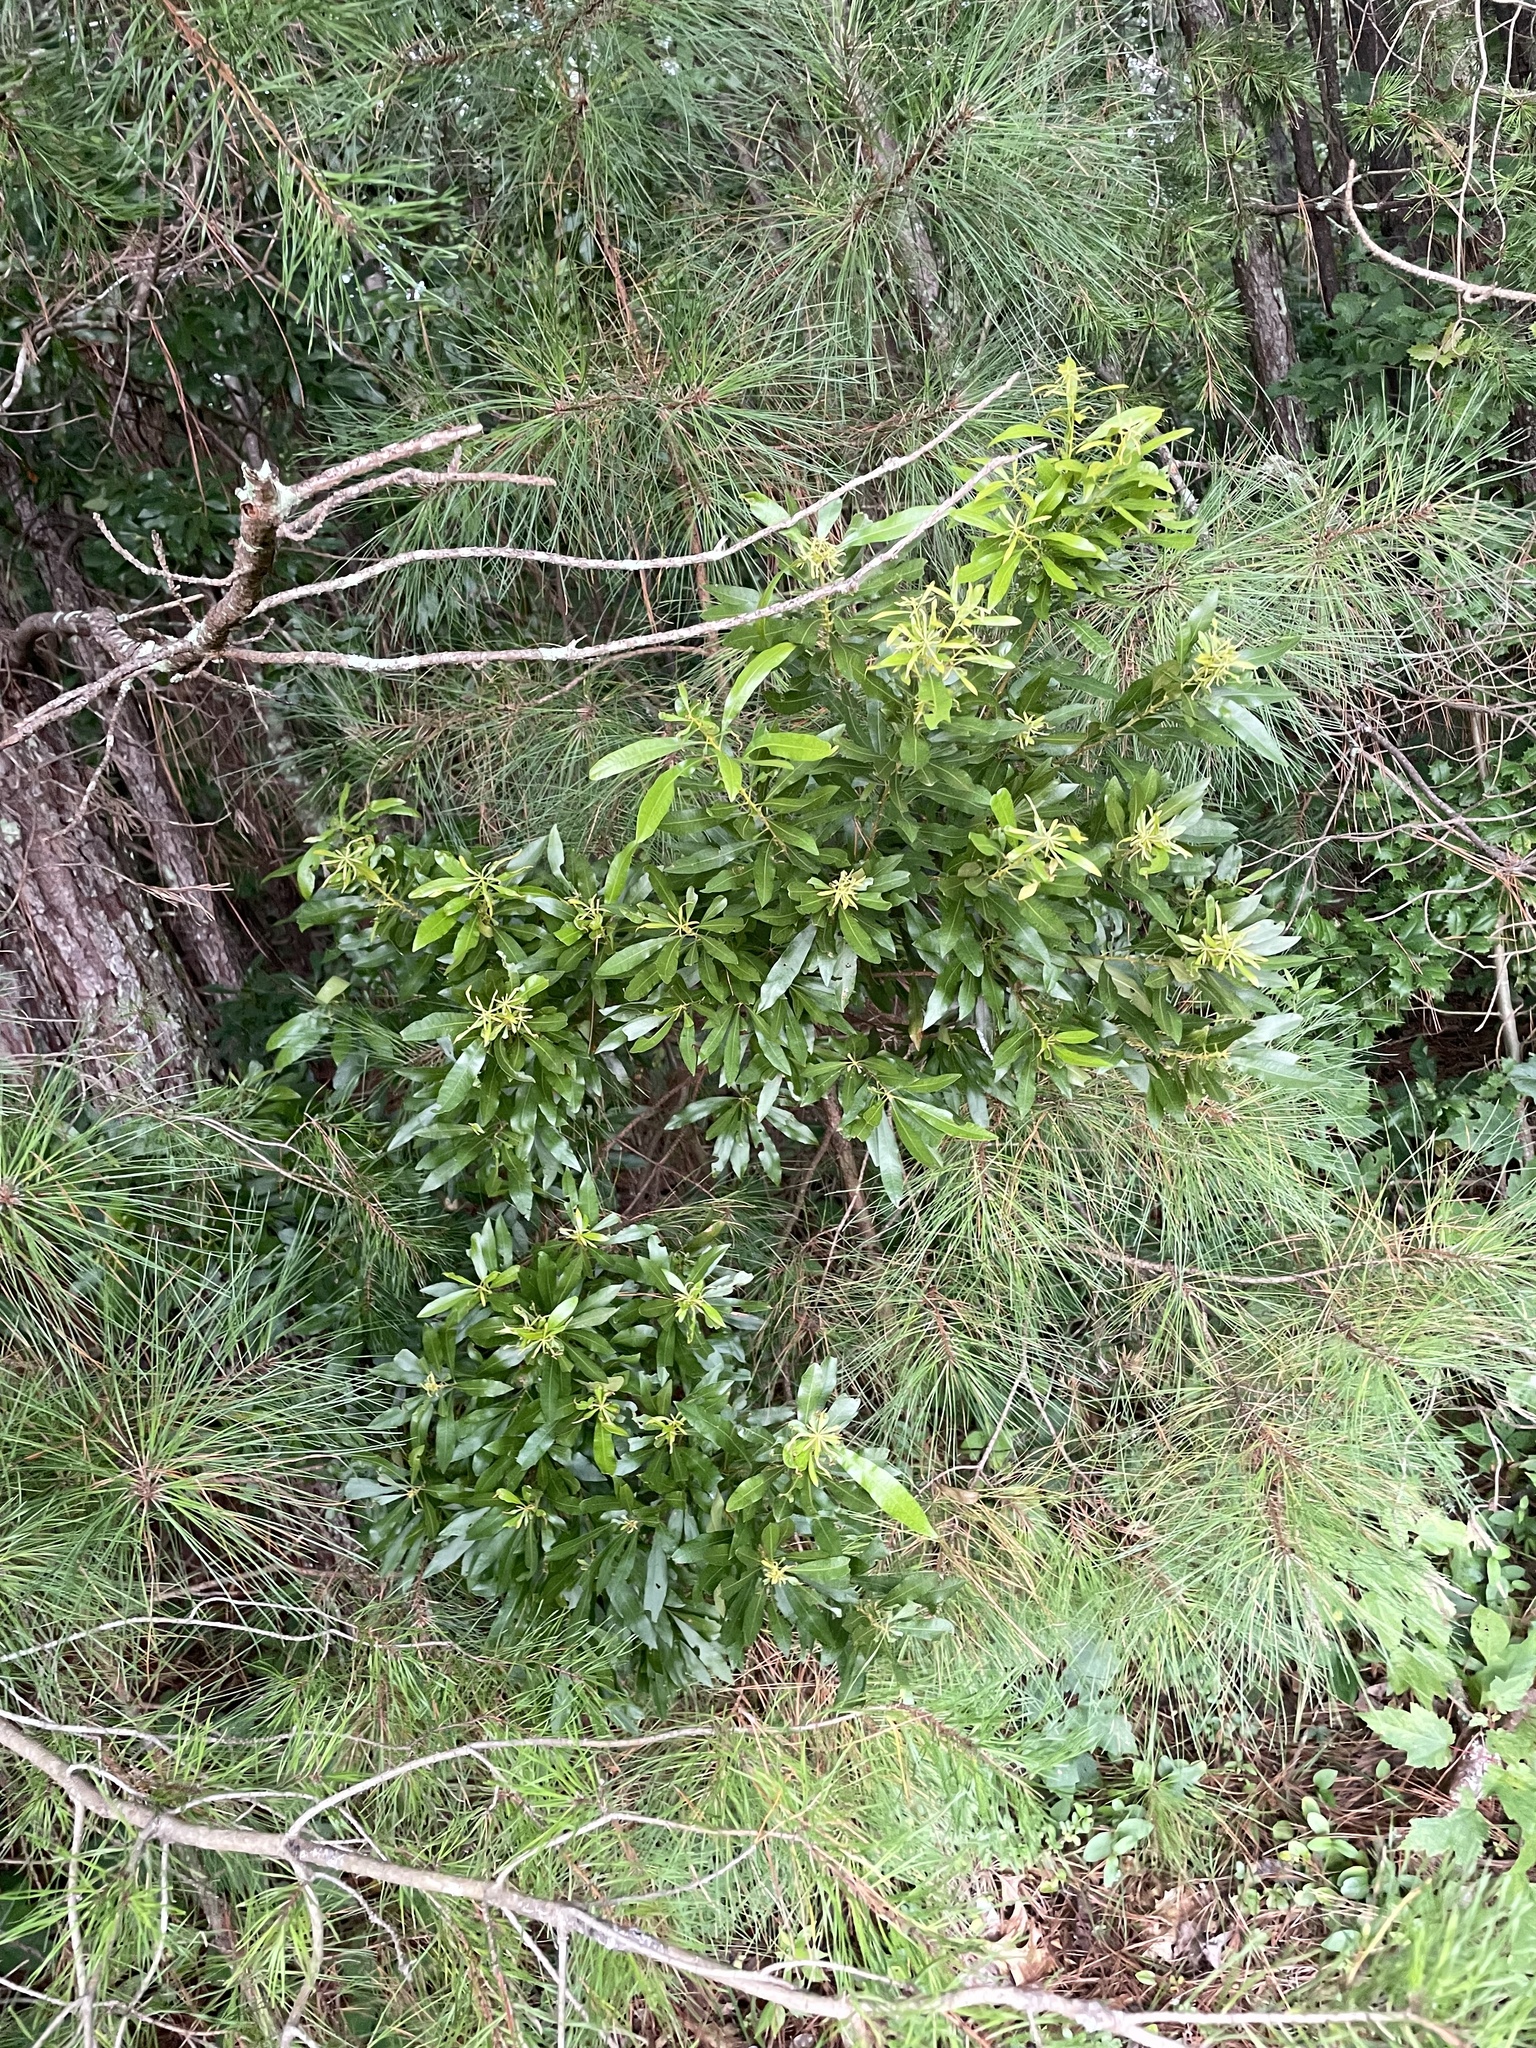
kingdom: Plantae
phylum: Tracheophyta
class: Magnoliopsida
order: Fagales
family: Myricaceae
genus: Morella
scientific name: Morella cerifera
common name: Wax myrtle
